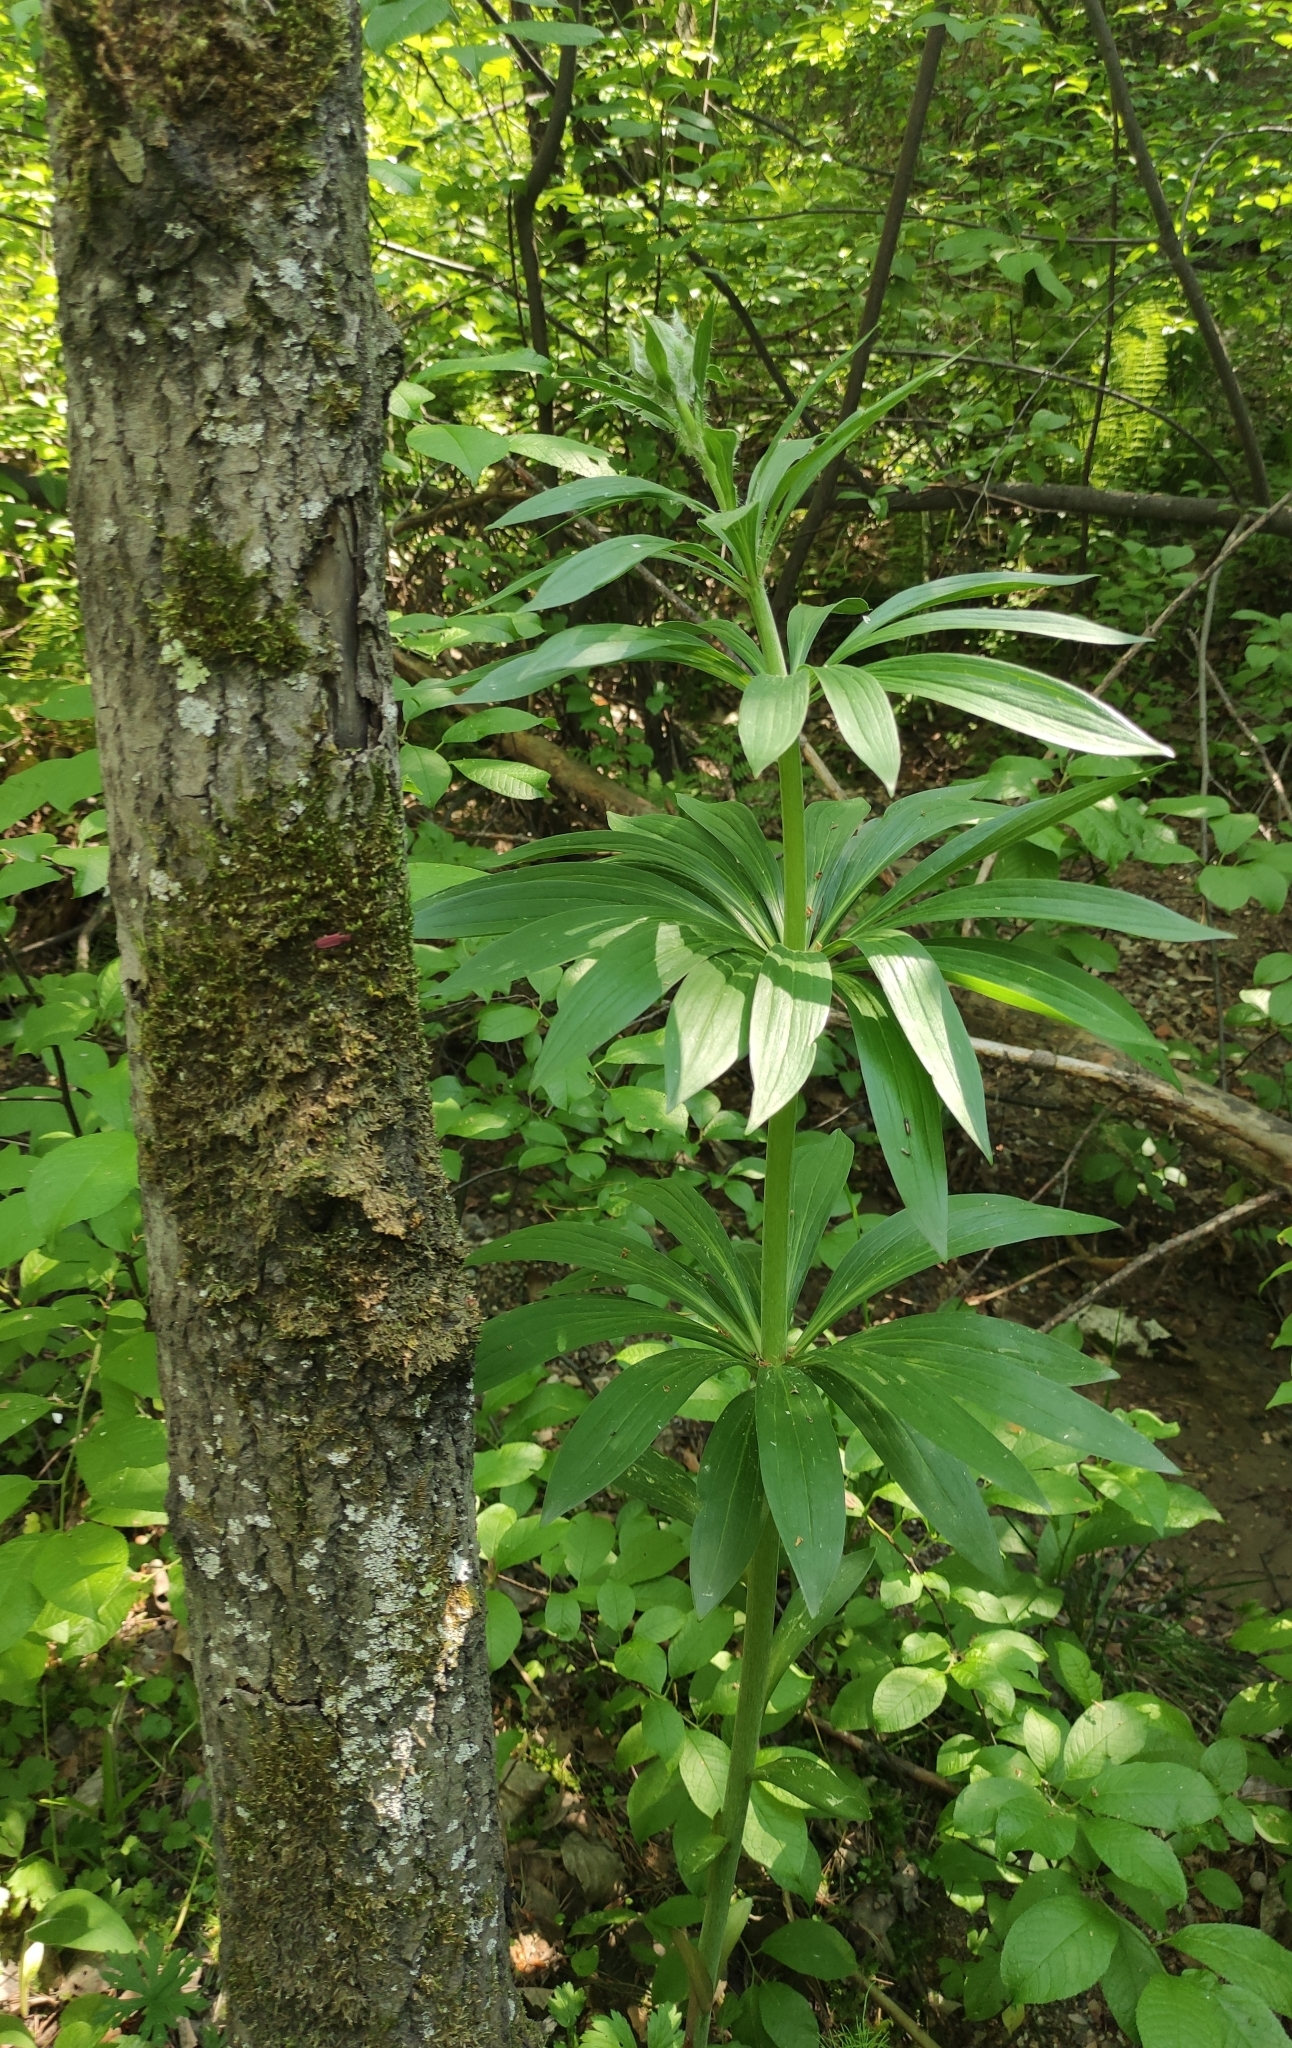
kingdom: Plantae
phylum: Tracheophyta
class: Liliopsida
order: Liliales
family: Liliaceae
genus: Lilium
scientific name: Lilium martagon
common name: Martagon lily
